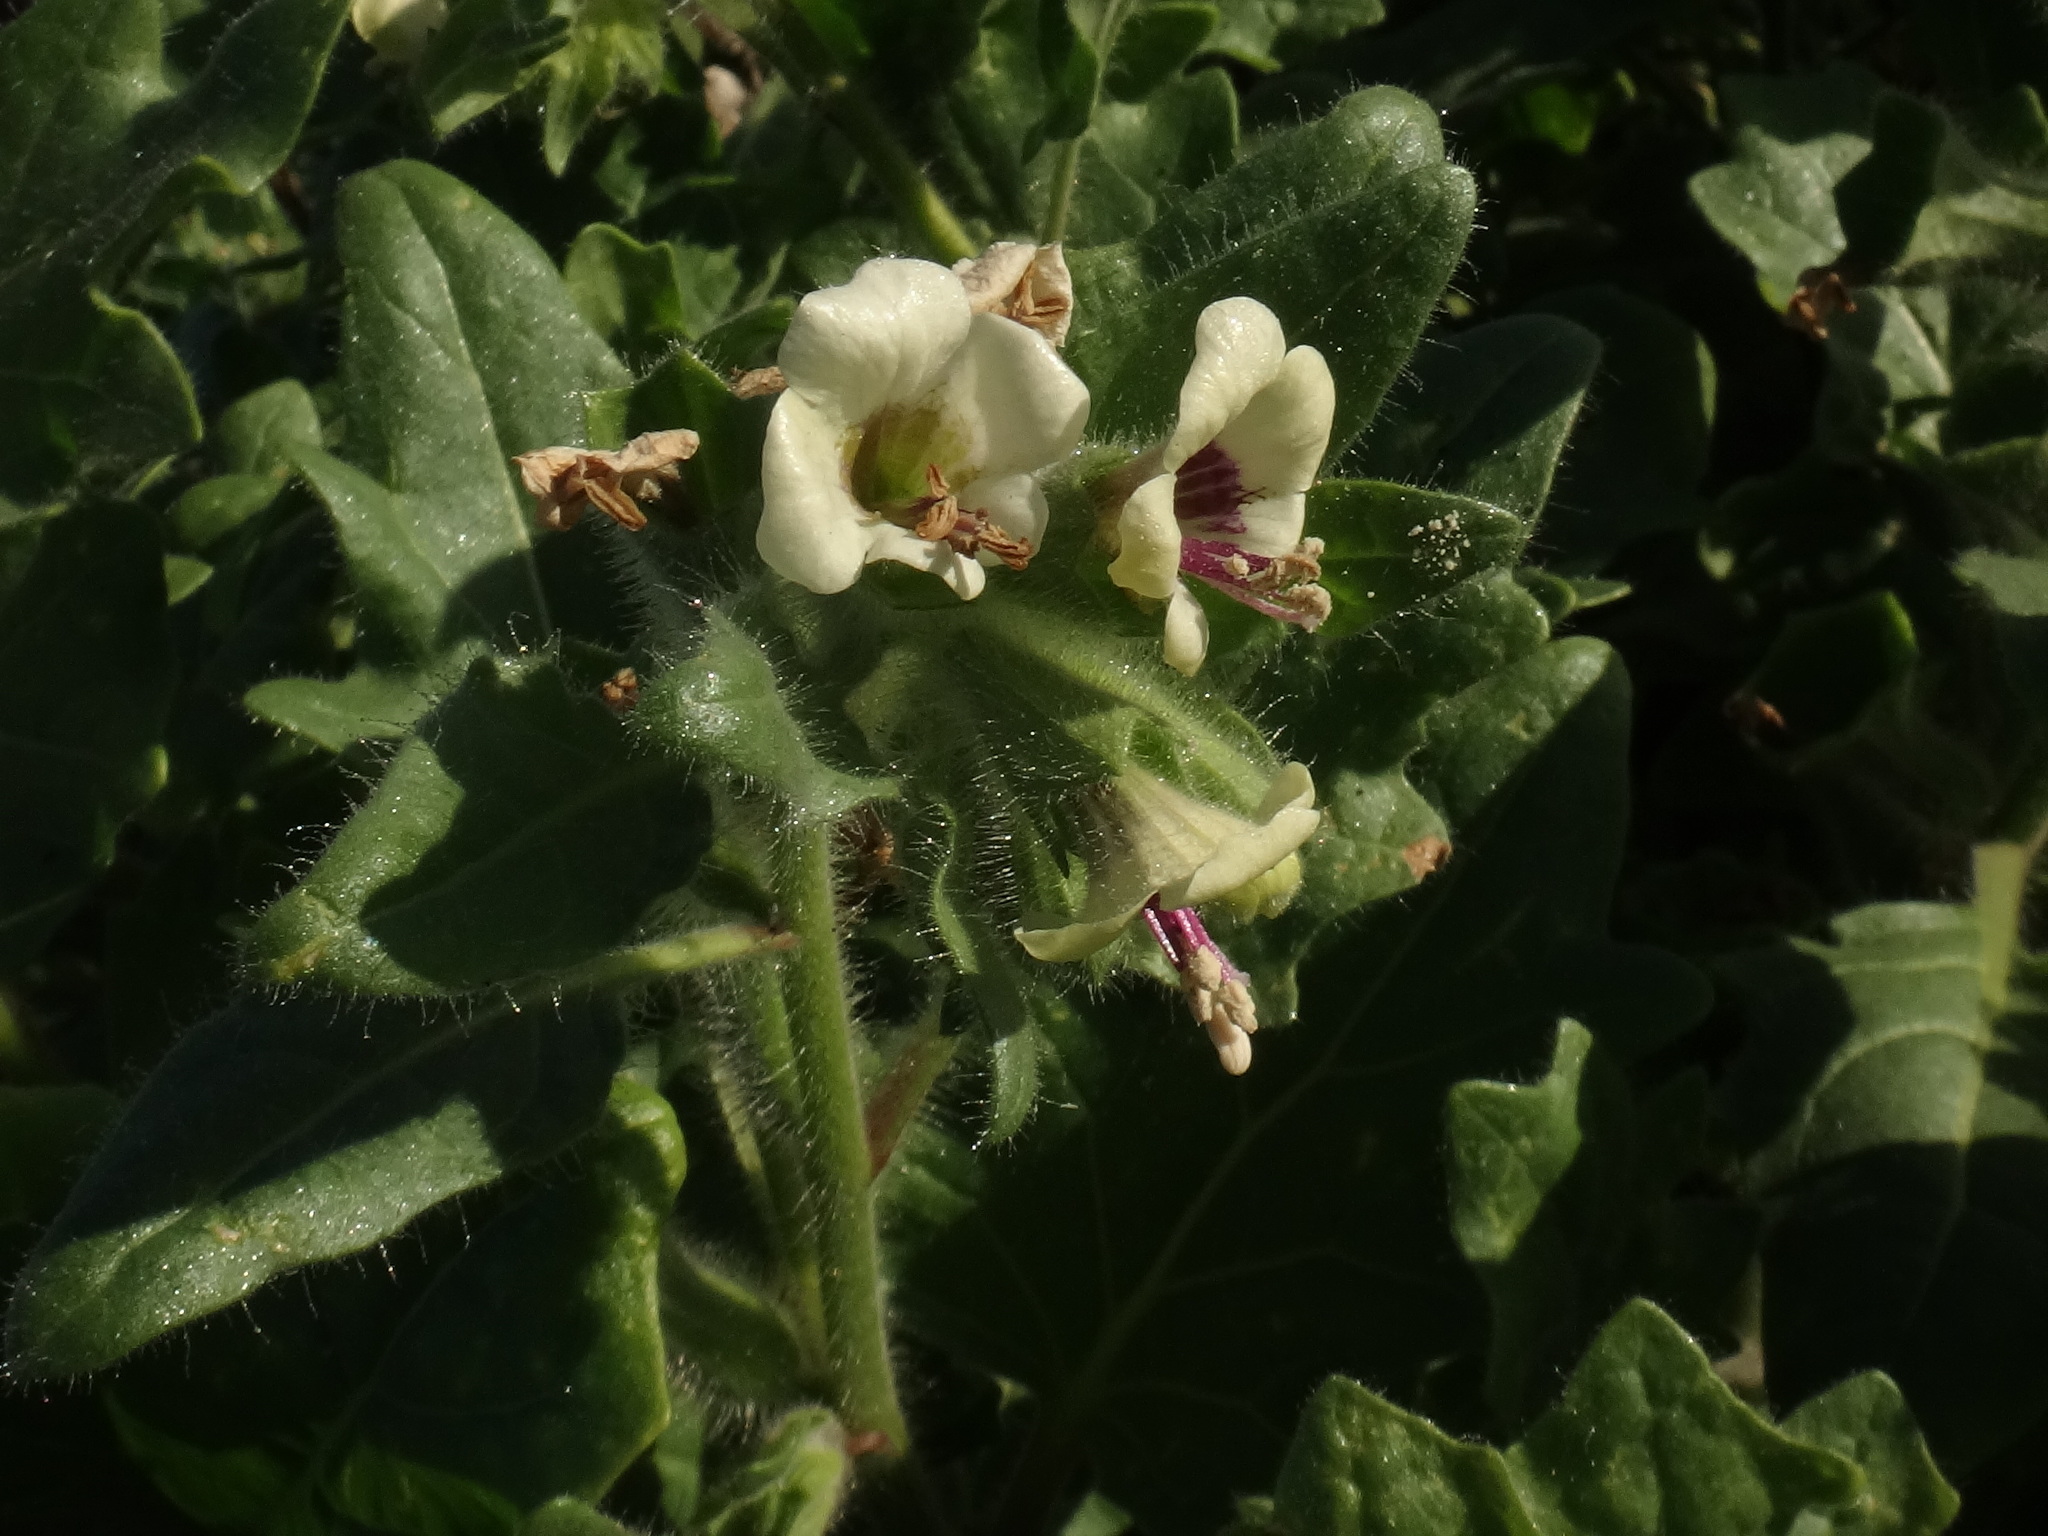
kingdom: Plantae
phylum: Tracheophyta
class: Magnoliopsida
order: Solanales
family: Solanaceae
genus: Hyoscyamus
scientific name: Hyoscyamus albus
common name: White henbane
